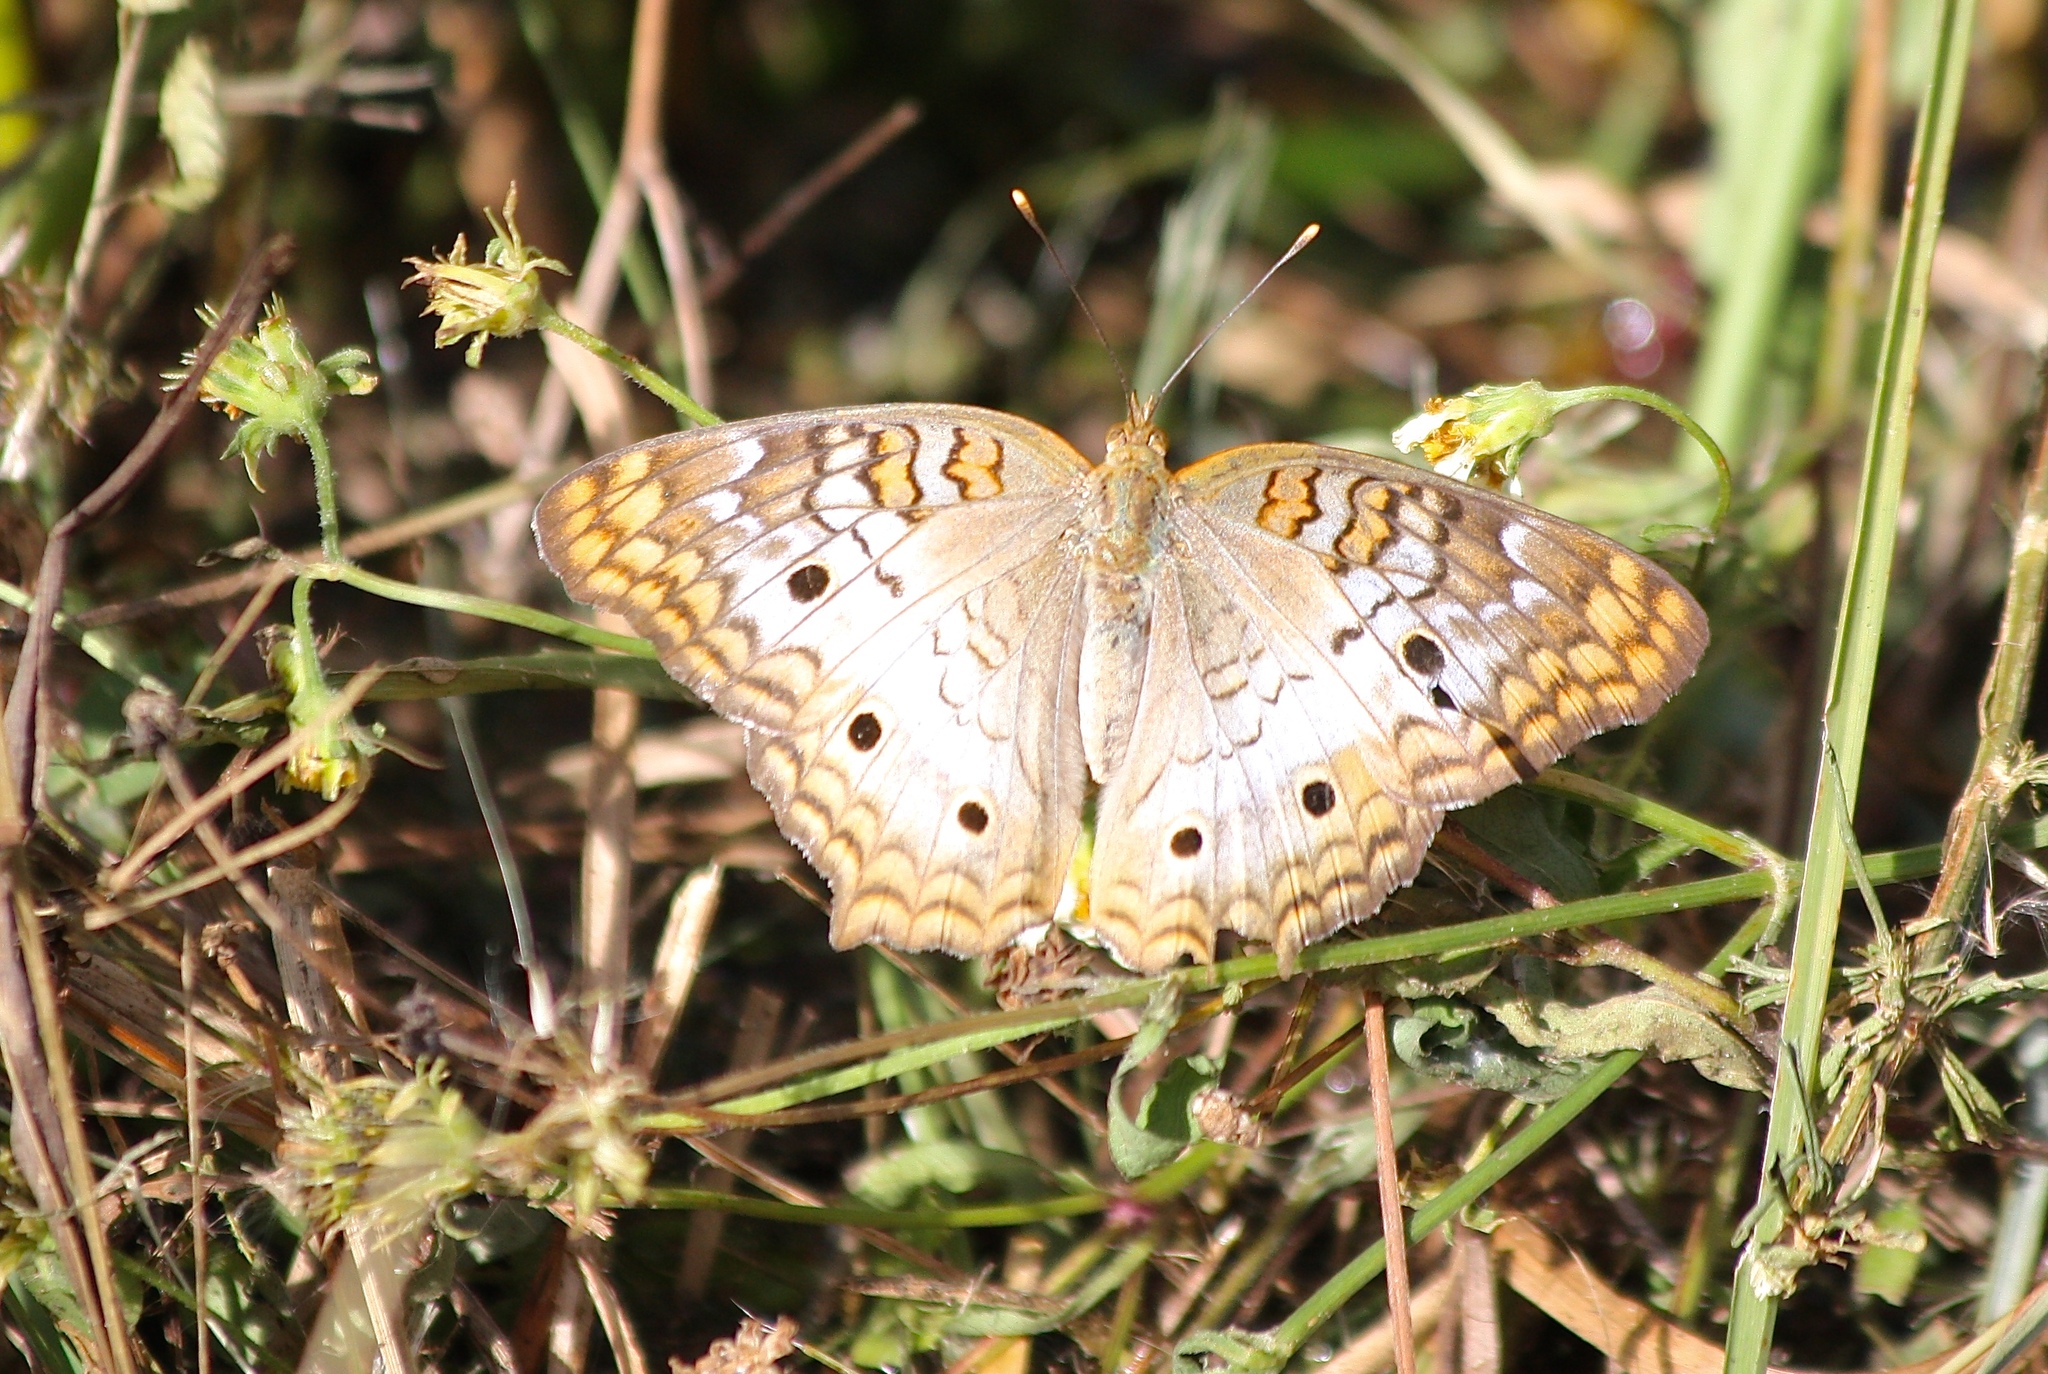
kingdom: Animalia
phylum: Arthropoda
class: Insecta
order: Lepidoptera
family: Nymphalidae
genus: Anartia
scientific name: Anartia jatrophae
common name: White peacock
